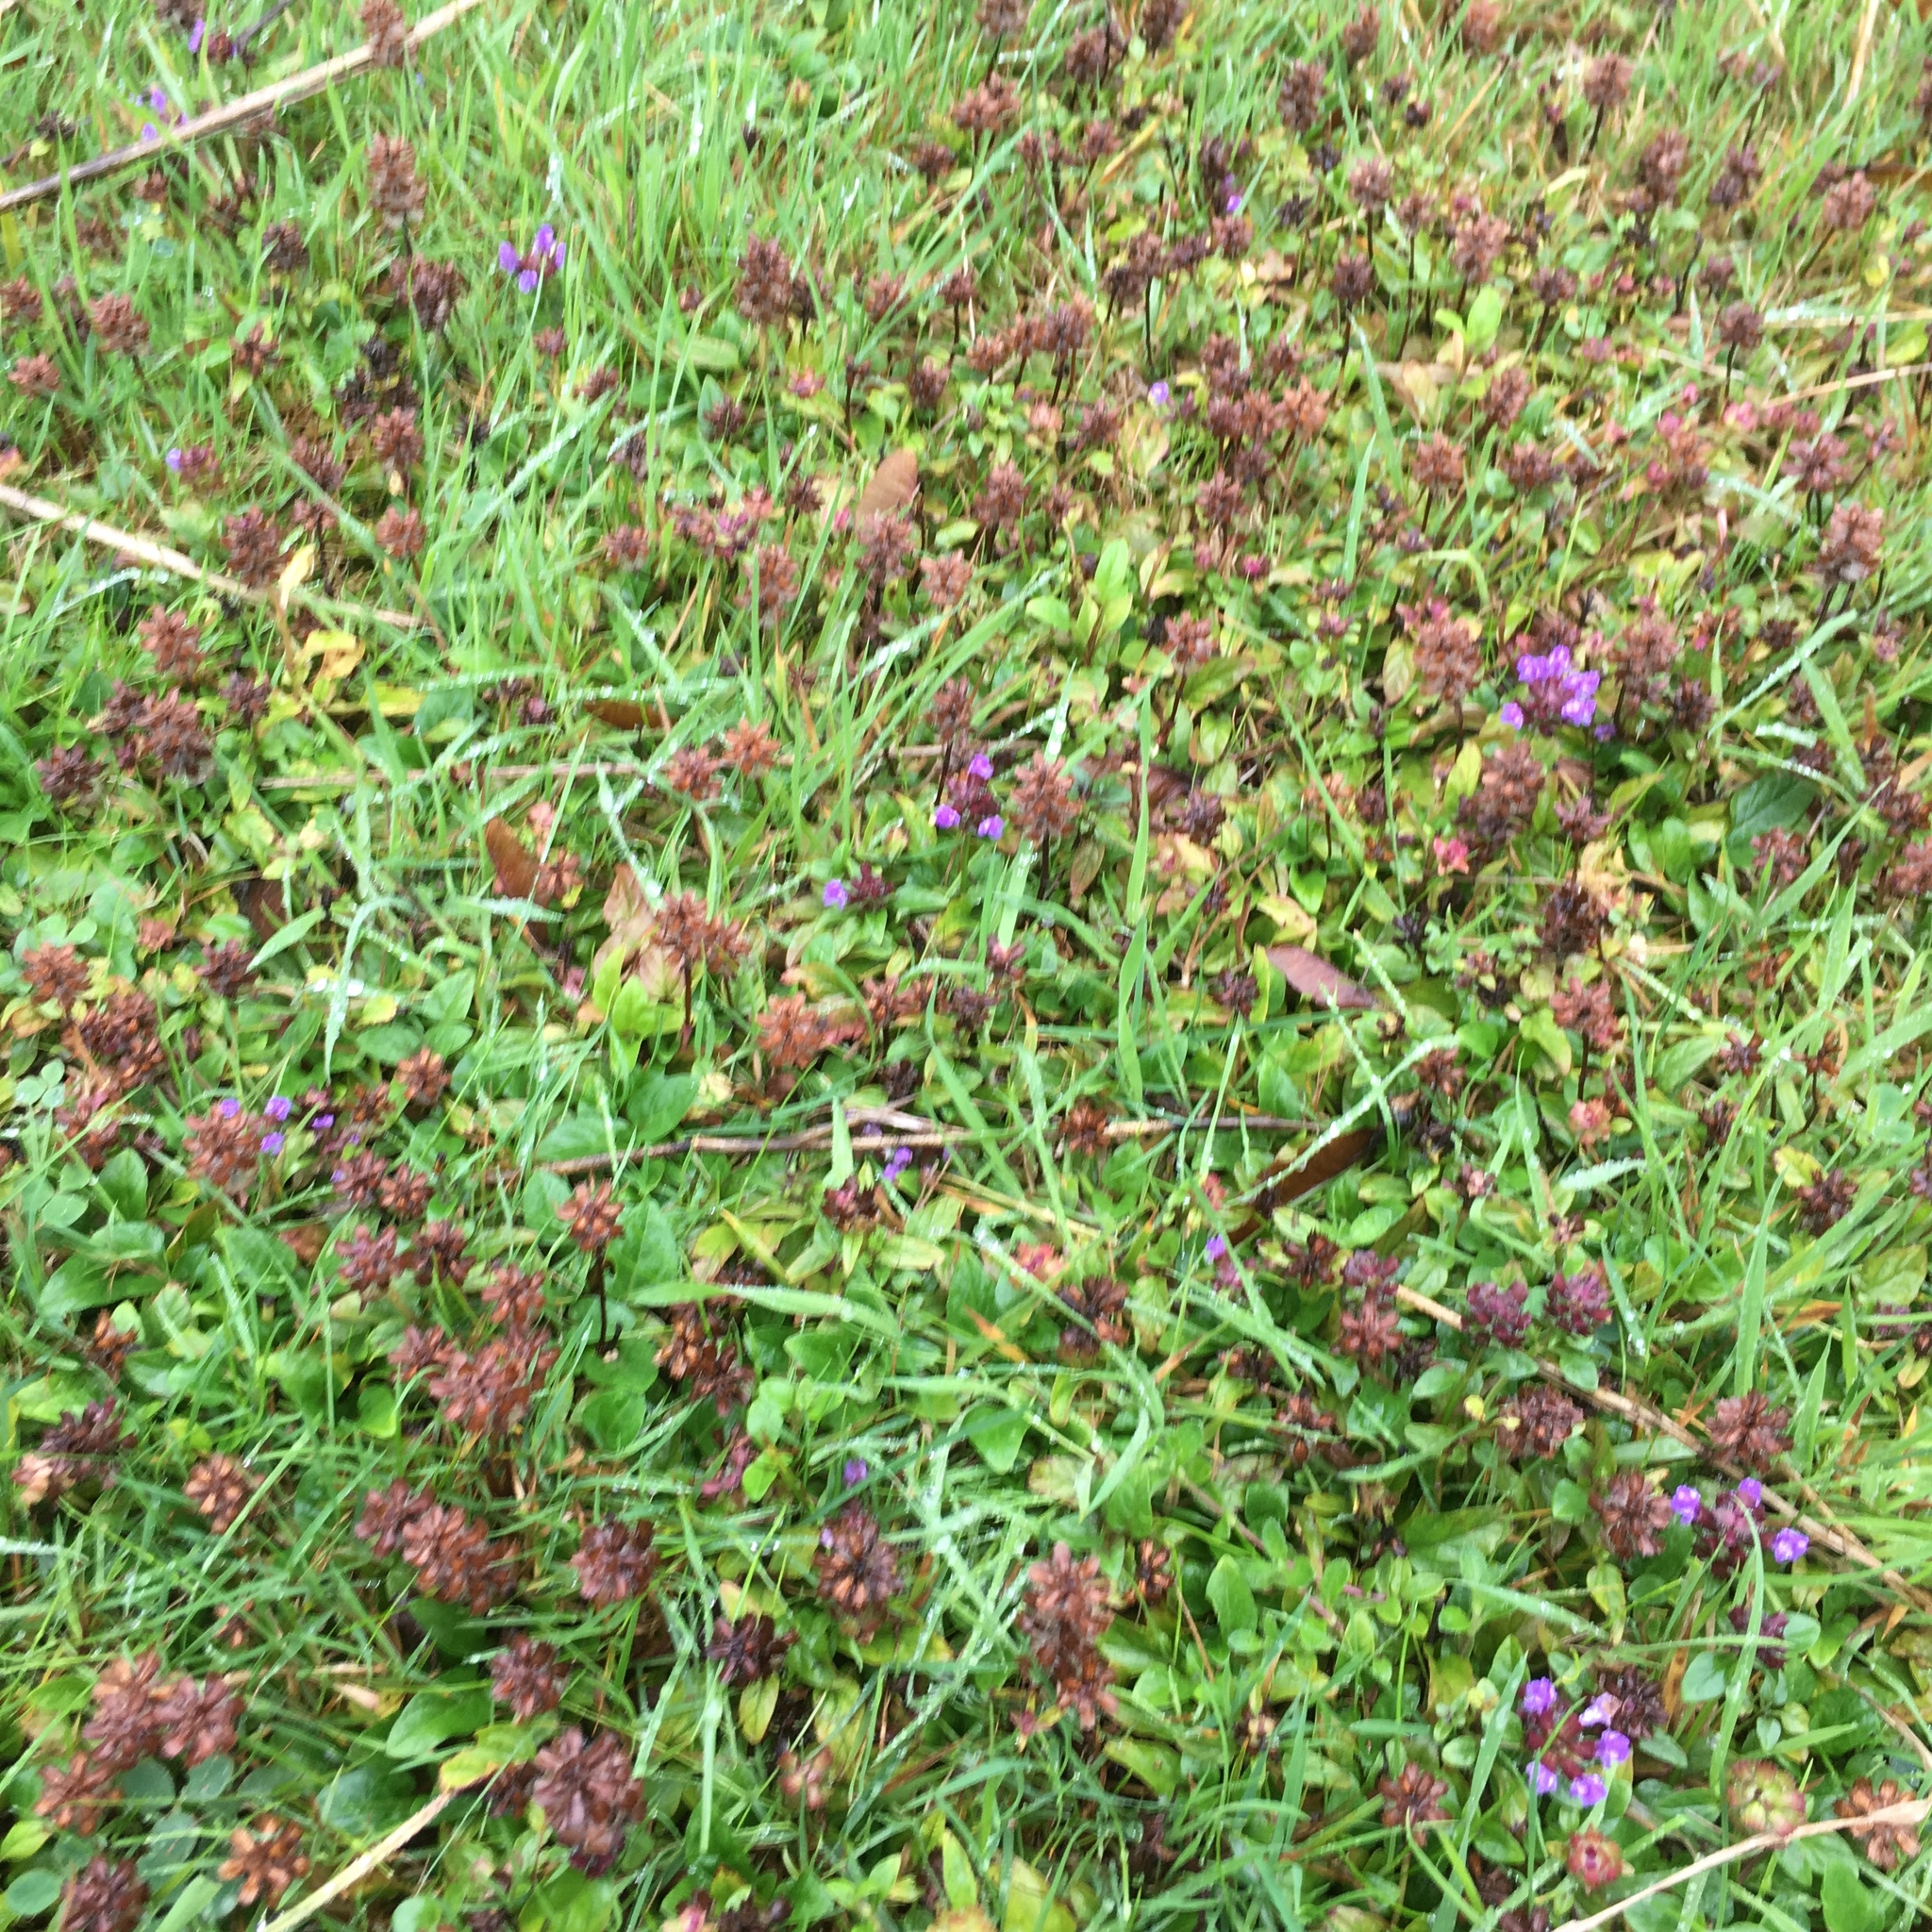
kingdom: Plantae
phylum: Tracheophyta
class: Magnoliopsida
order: Lamiales
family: Lamiaceae
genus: Prunella
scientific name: Prunella vulgaris
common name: Heal-all
